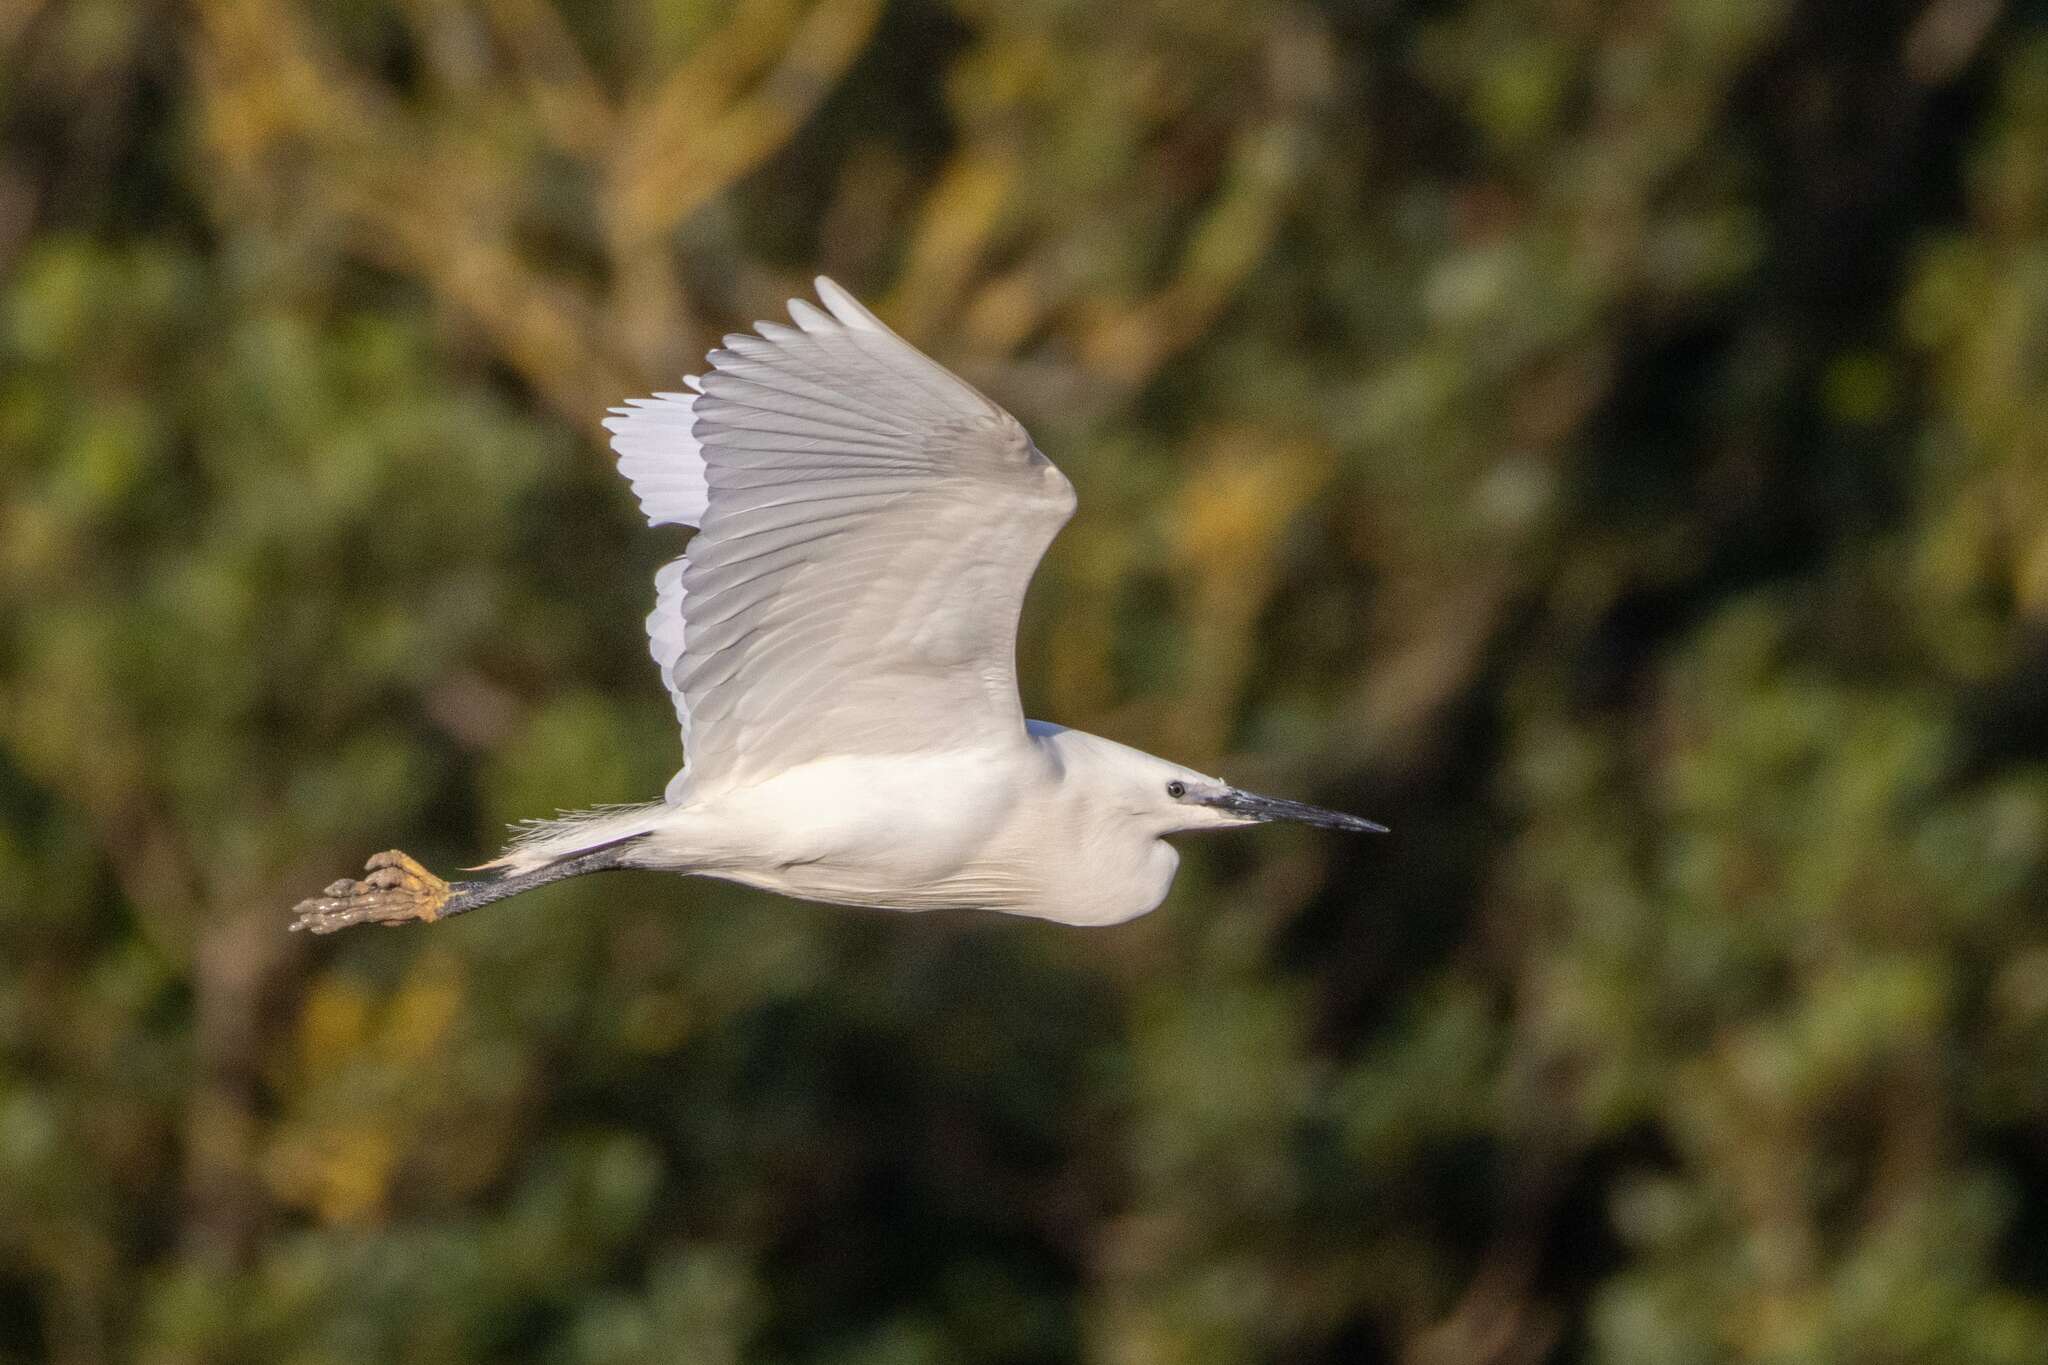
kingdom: Animalia
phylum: Chordata
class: Aves
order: Pelecaniformes
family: Ardeidae
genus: Egretta
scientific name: Egretta garzetta
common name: Little egret
